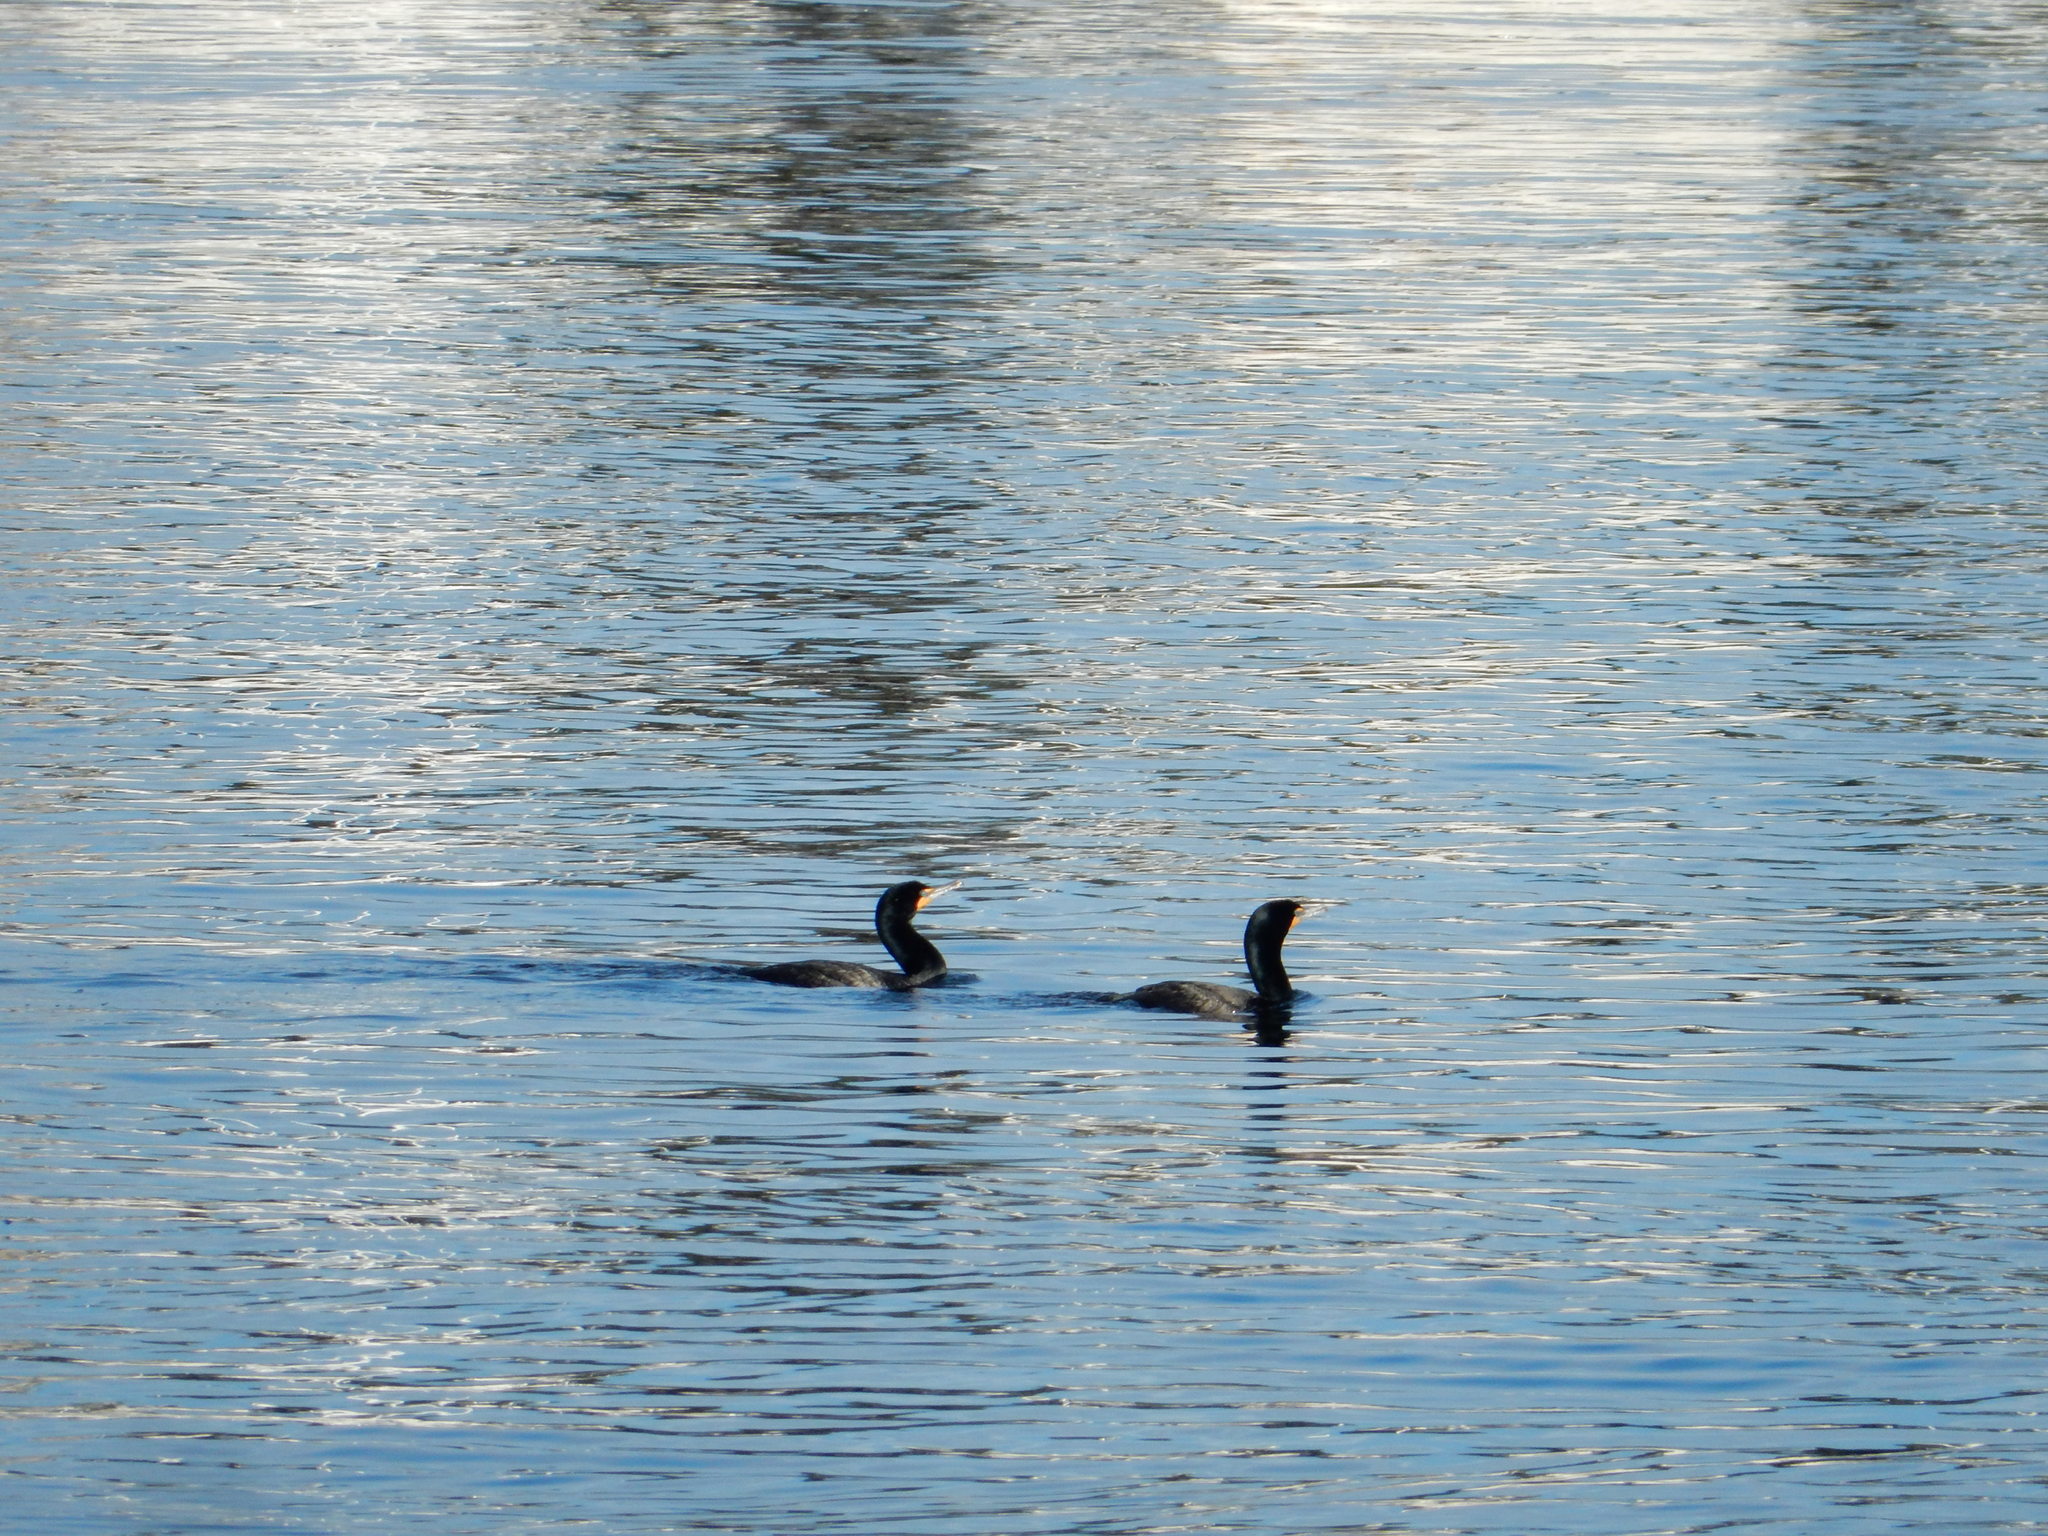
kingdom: Animalia
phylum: Chordata
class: Aves
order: Suliformes
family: Phalacrocoracidae
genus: Phalacrocorax
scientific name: Phalacrocorax auritus
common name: Double-crested cormorant
